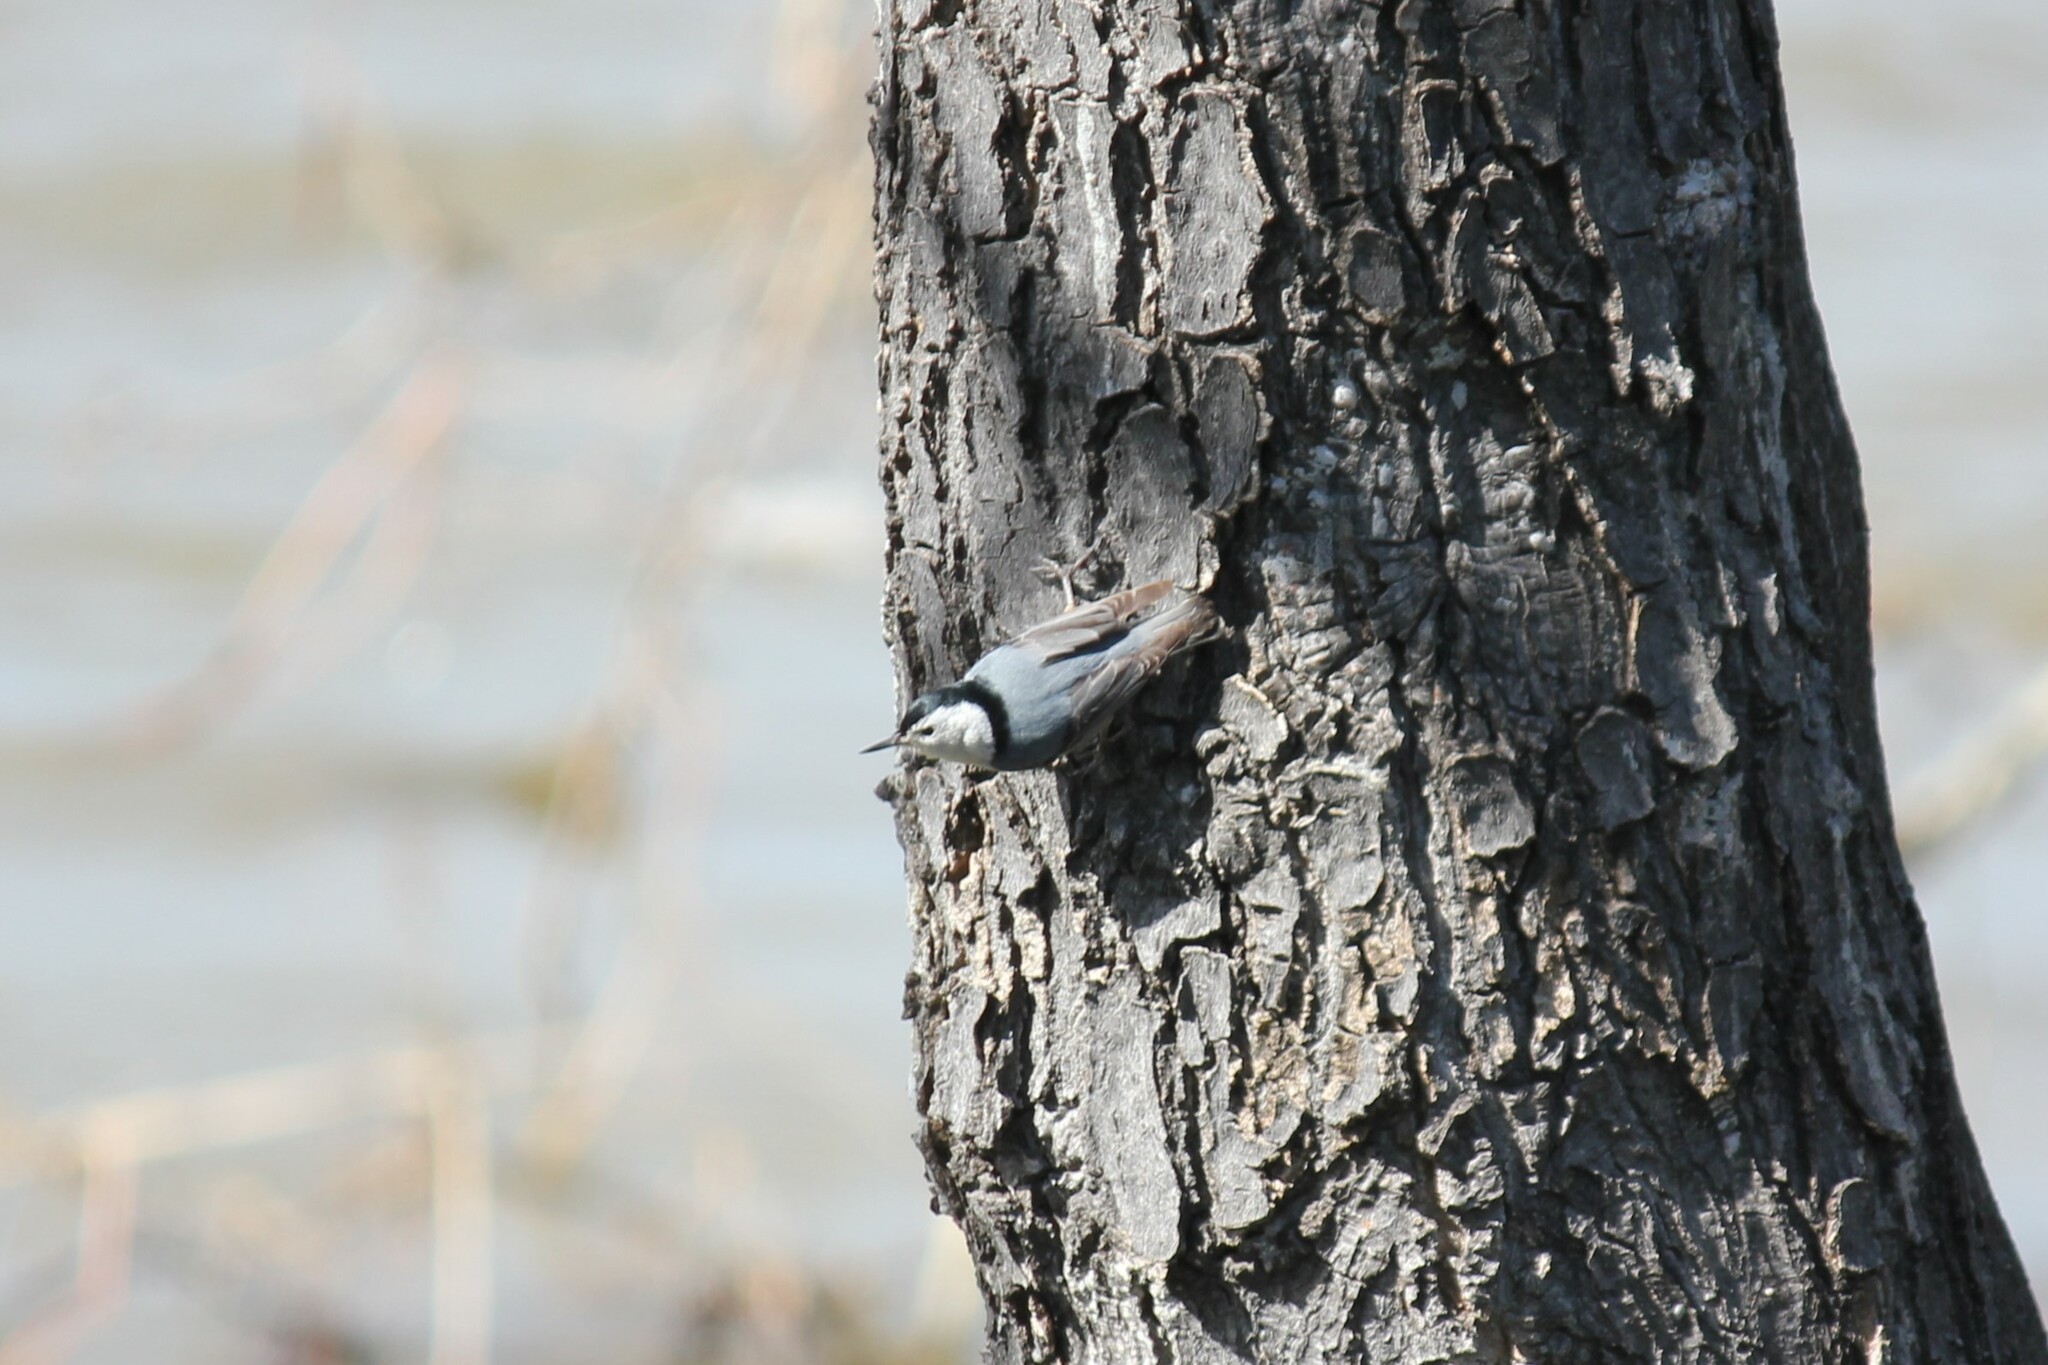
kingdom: Animalia
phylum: Chordata
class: Aves
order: Passeriformes
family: Sittidae
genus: Sitta
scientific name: Sitta carolinensis
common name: White-breasted nuthatch
